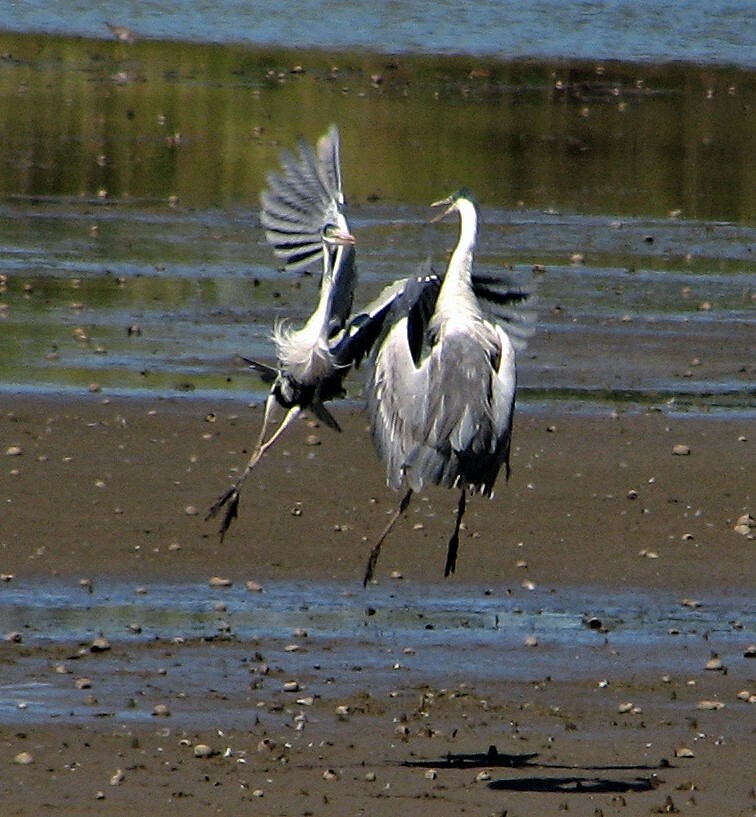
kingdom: Animalia
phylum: Chordata
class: Aves
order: Pelecaniformes
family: Ardeidae
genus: Ardea
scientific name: Ardea cocoi
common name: Cocoi heron
